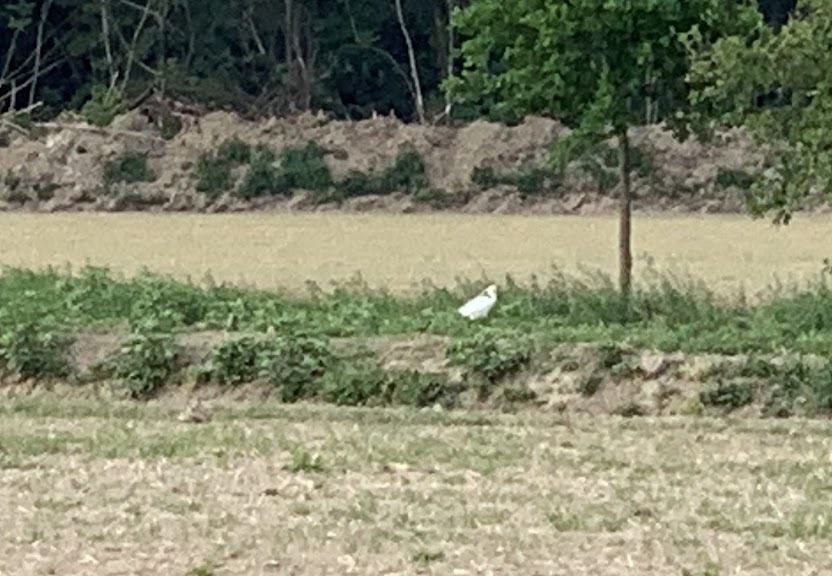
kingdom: Animalia
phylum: Chordata
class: Aves
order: Pelecaniformes
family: Ardeidae
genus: Egretta
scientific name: Egretta garzetta
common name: Little egret
